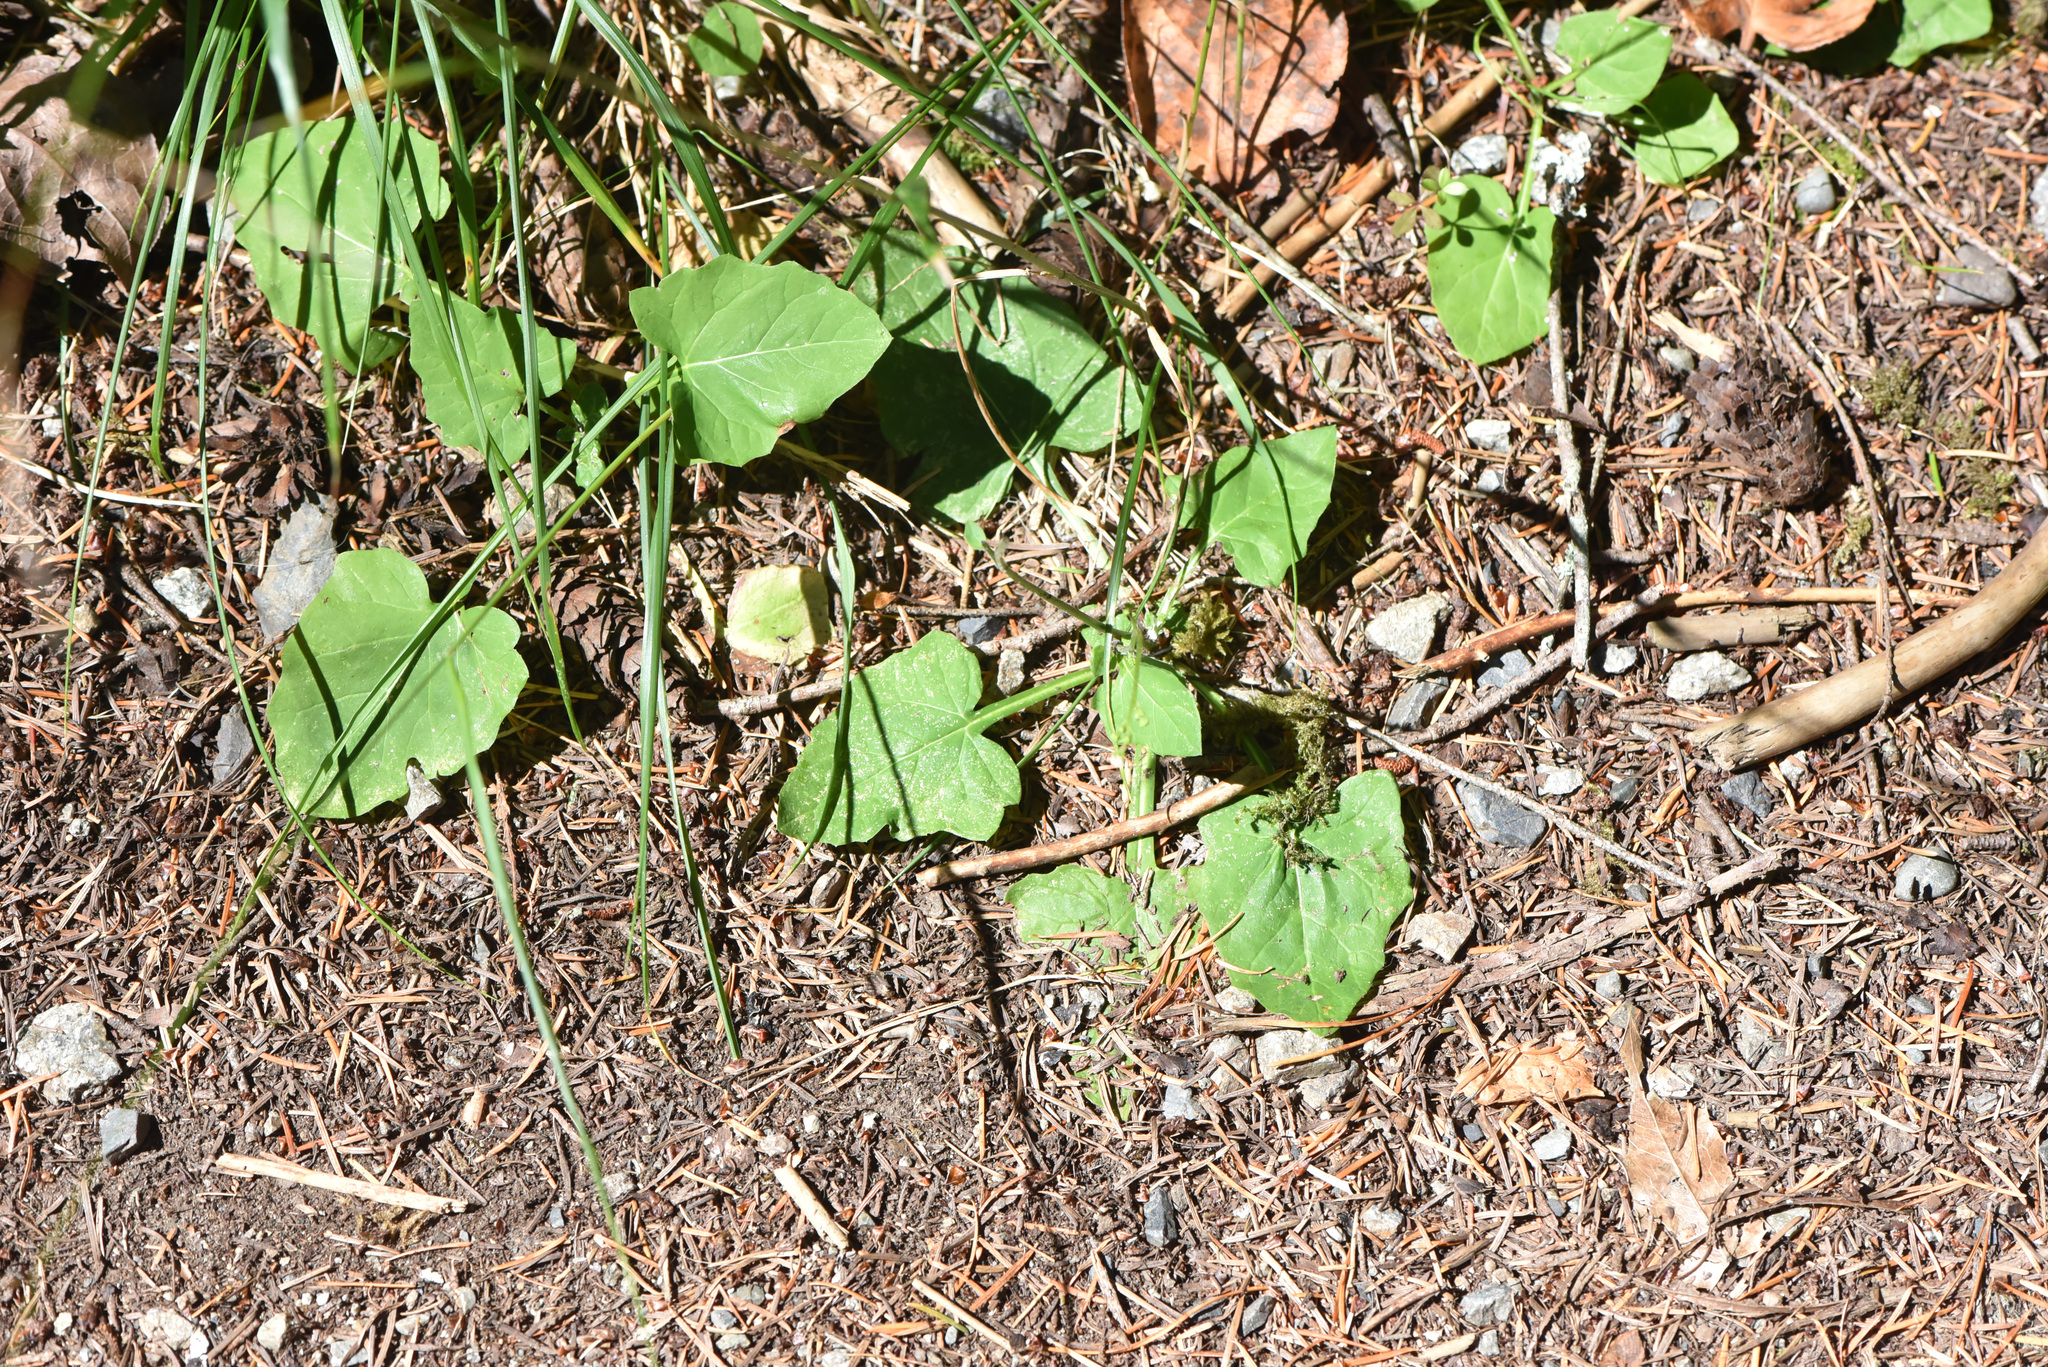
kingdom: Plantae
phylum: Tracheophyta
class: Magnoliopsida
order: Asterales
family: Asteraceae
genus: Adenocaulon
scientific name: Adenocaulon bicolor
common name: Trailplant
